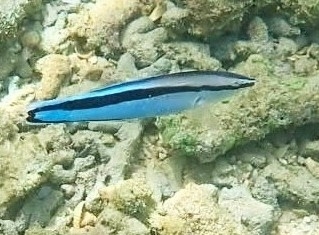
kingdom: Animalia
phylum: Chordata
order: Perciformes
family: Labridae
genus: Labroides
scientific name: Labroides dimidiatus
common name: Blue diesel wrasse
